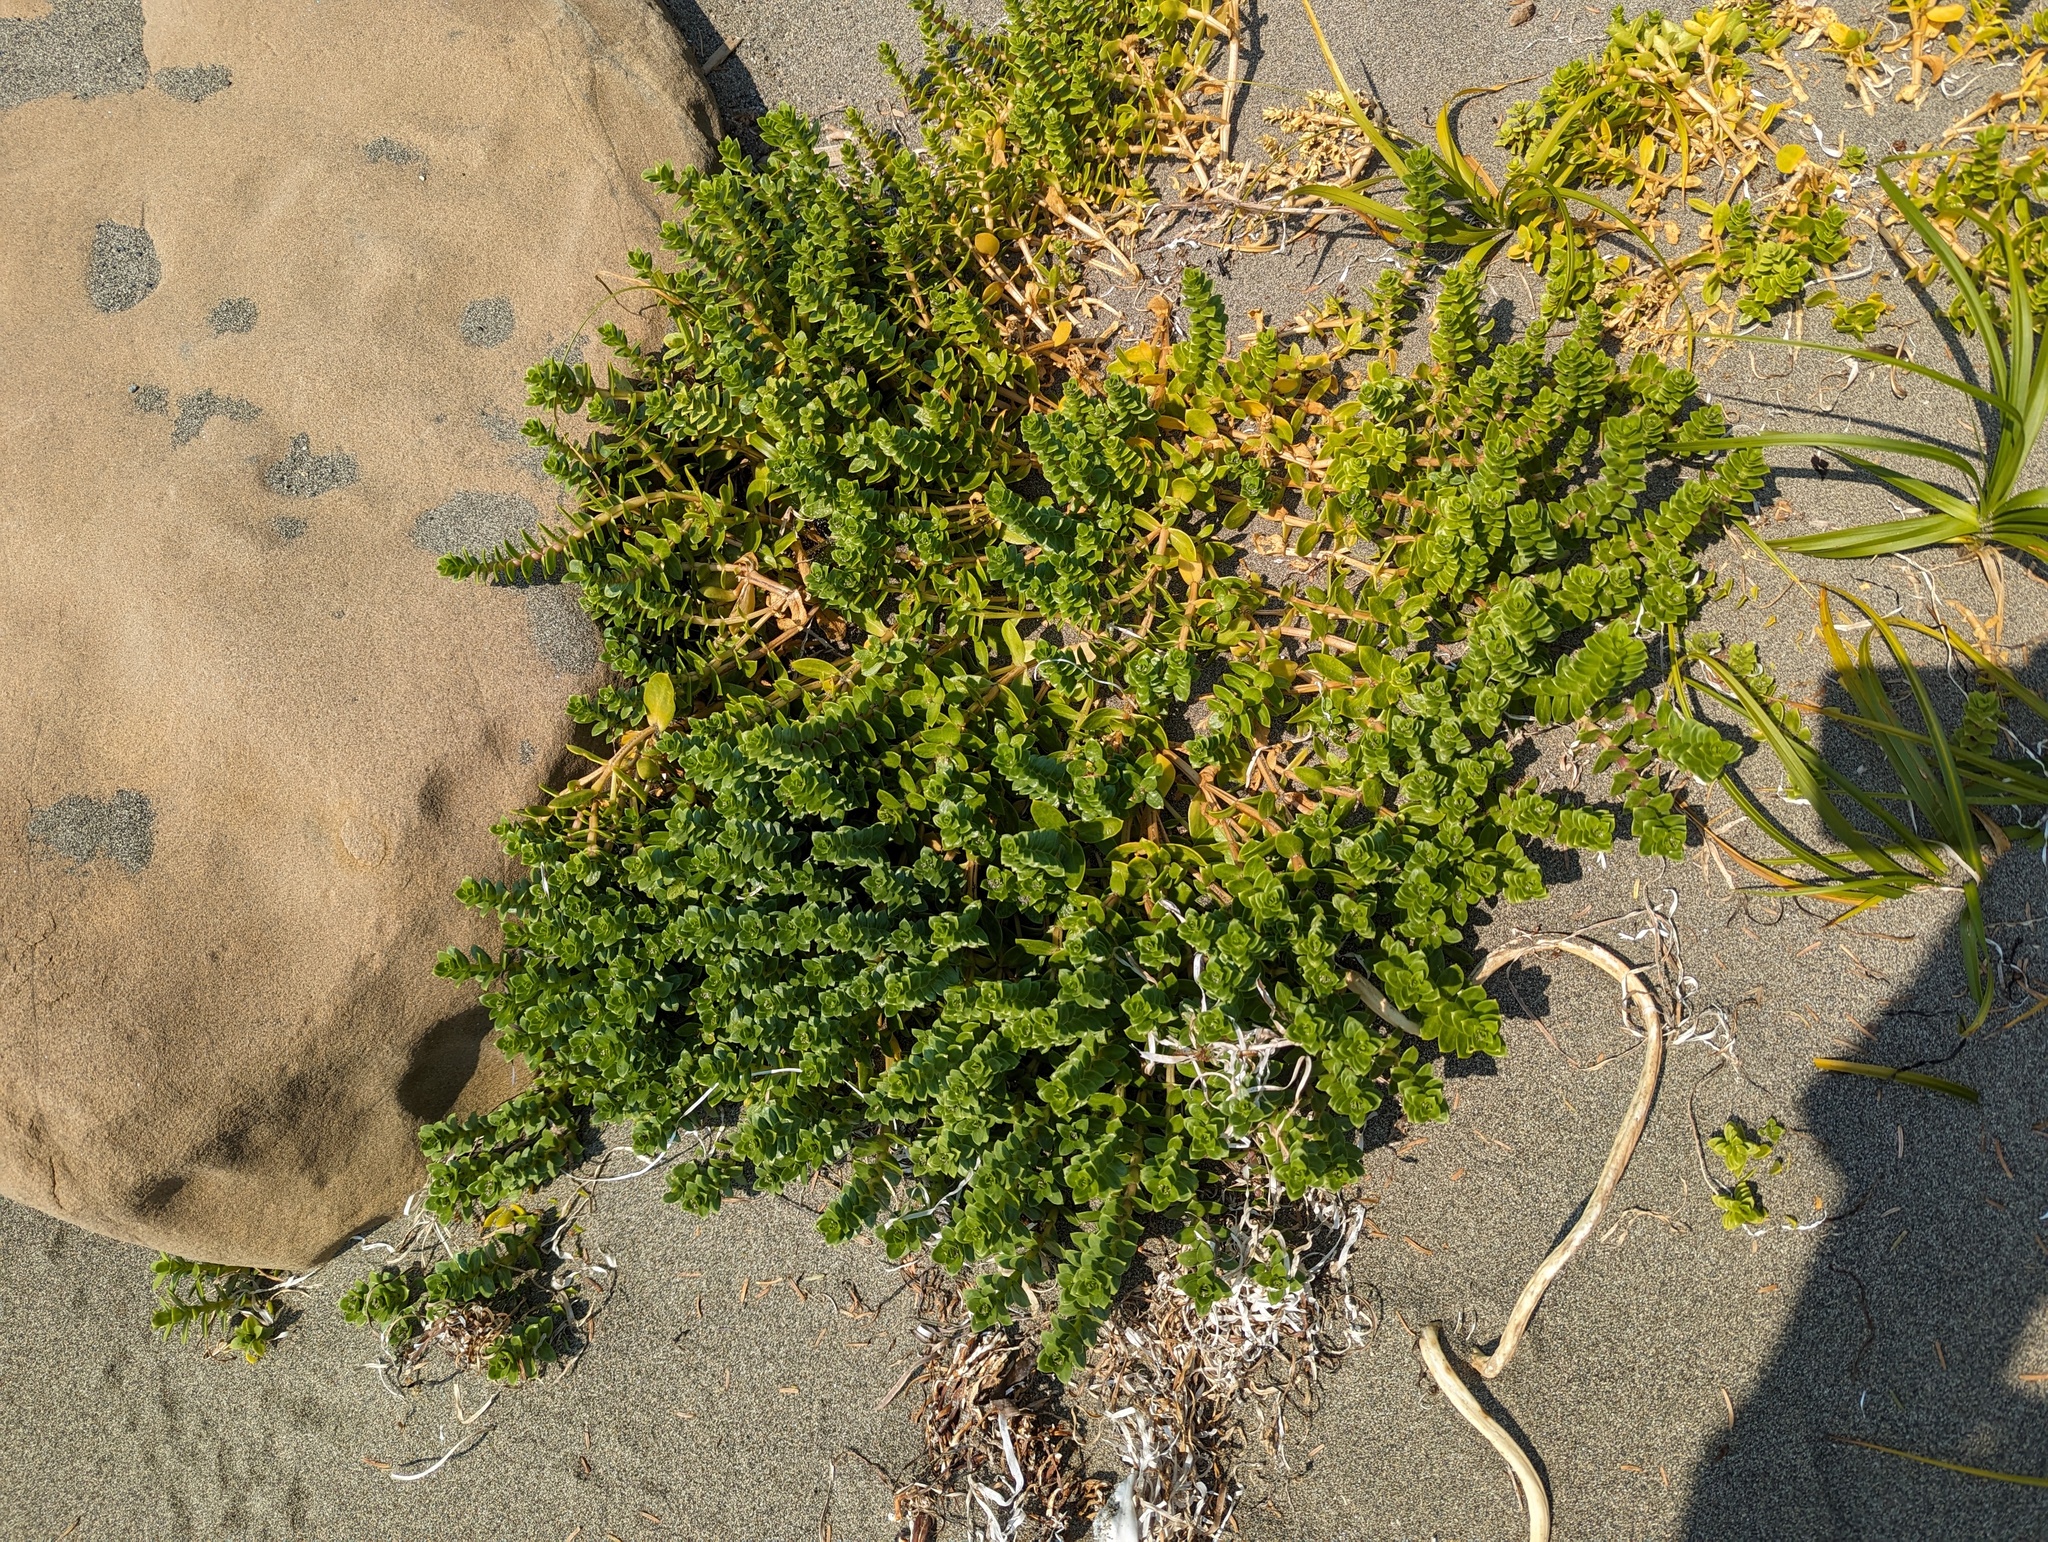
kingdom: Plantae
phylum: Tracheophyta
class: Magnoliopsida
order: Caryophyllales
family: Caryophyllaceae
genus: Honckenya
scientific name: Honckenya peploides
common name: Sea sandwort
